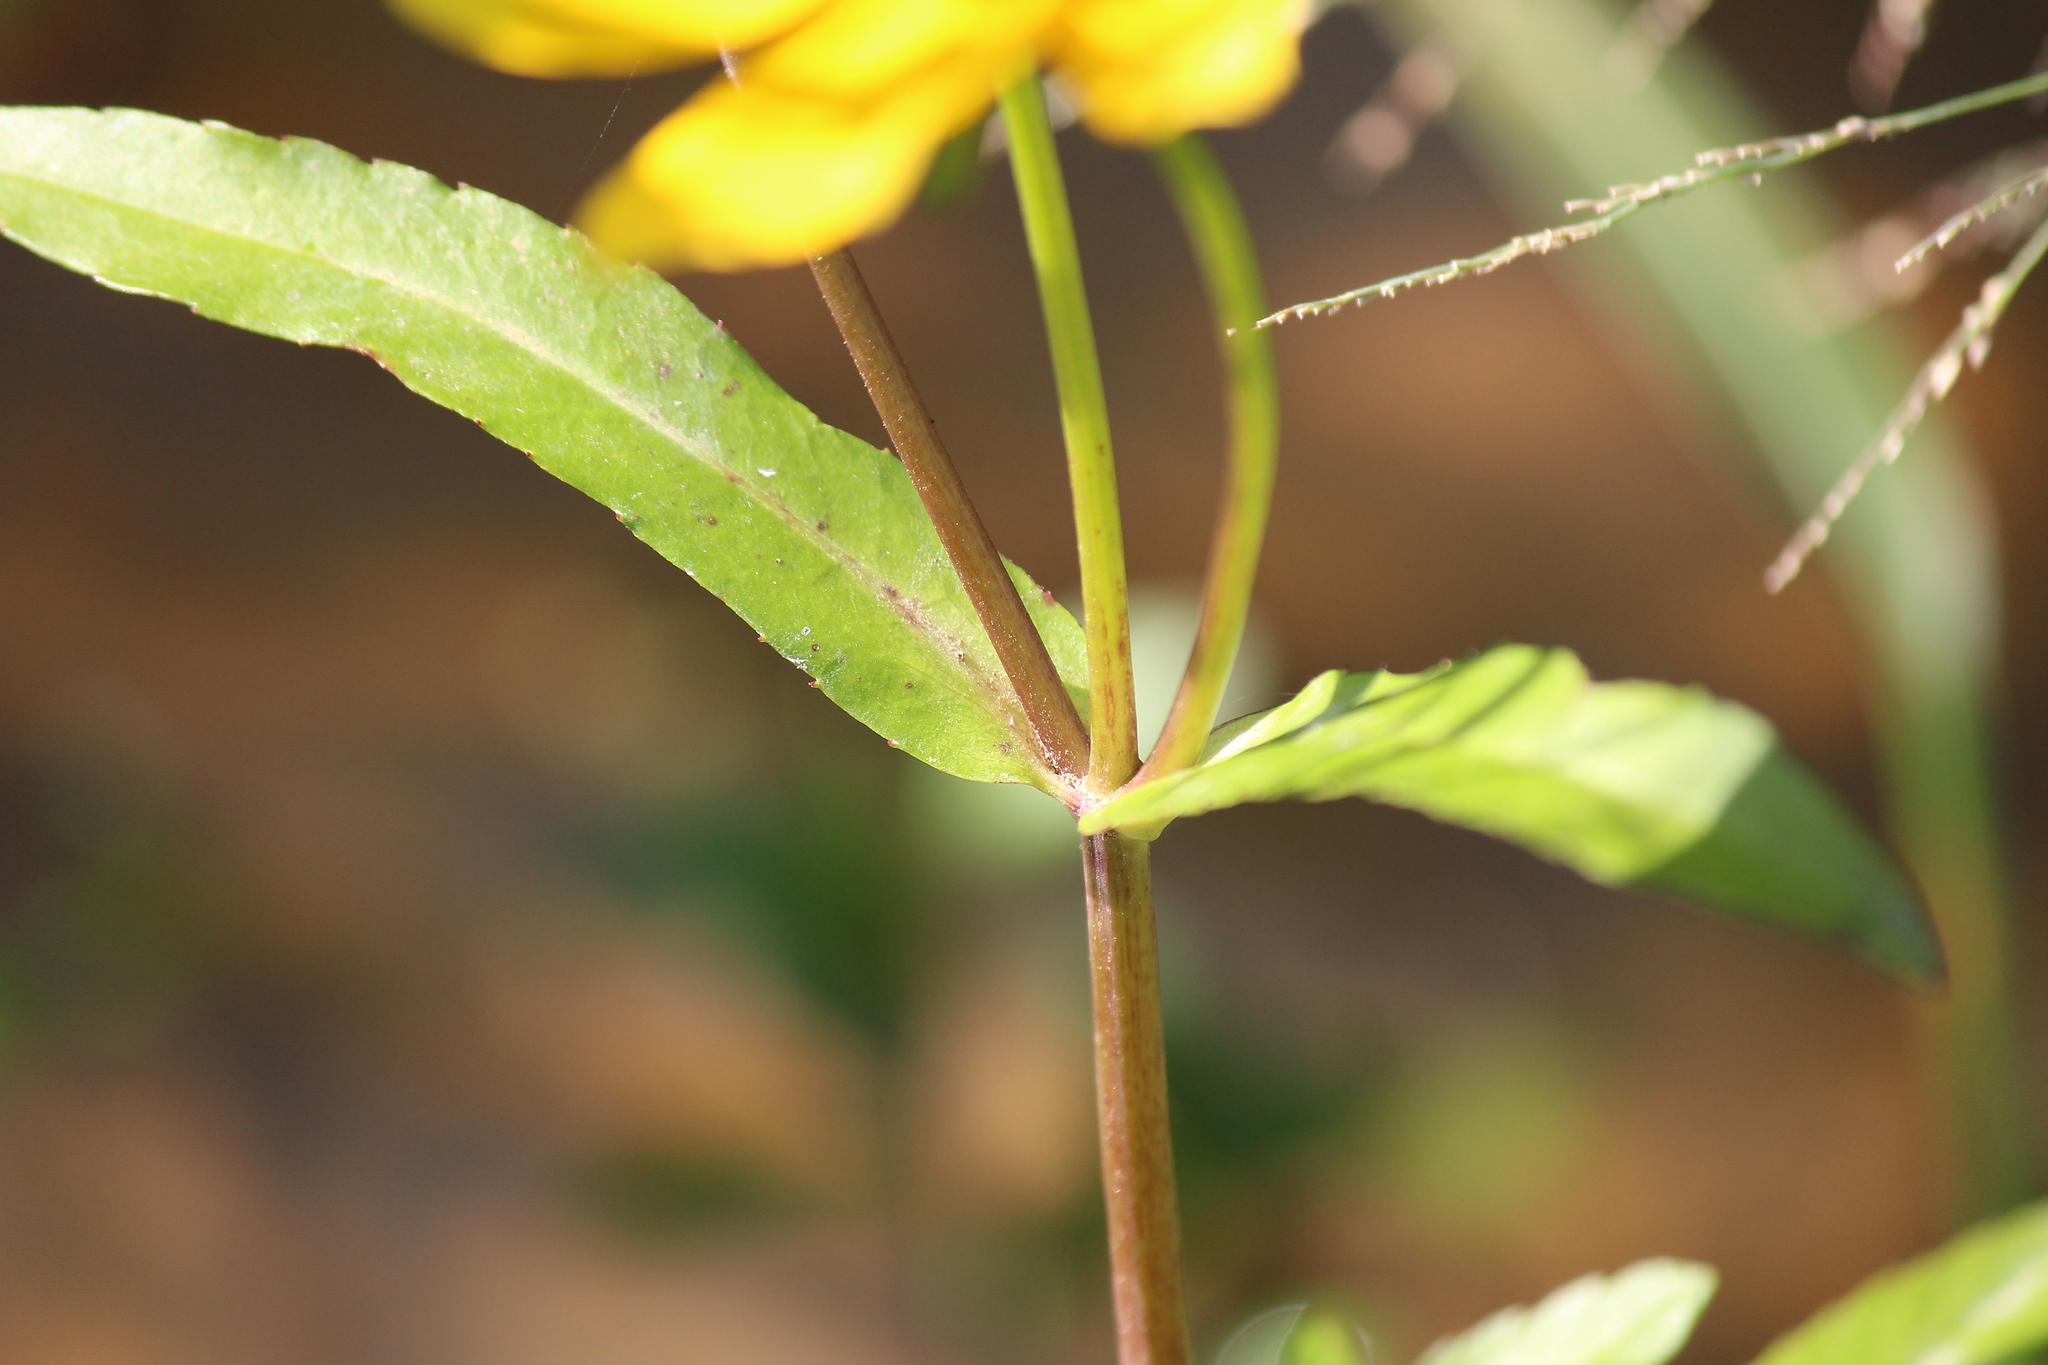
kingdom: Plantae
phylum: Tracheophyta
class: Magnoliopsida
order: Asterales
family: Asteraceae
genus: Bidens
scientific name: Bidens laevis
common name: Larger bur-marigold
